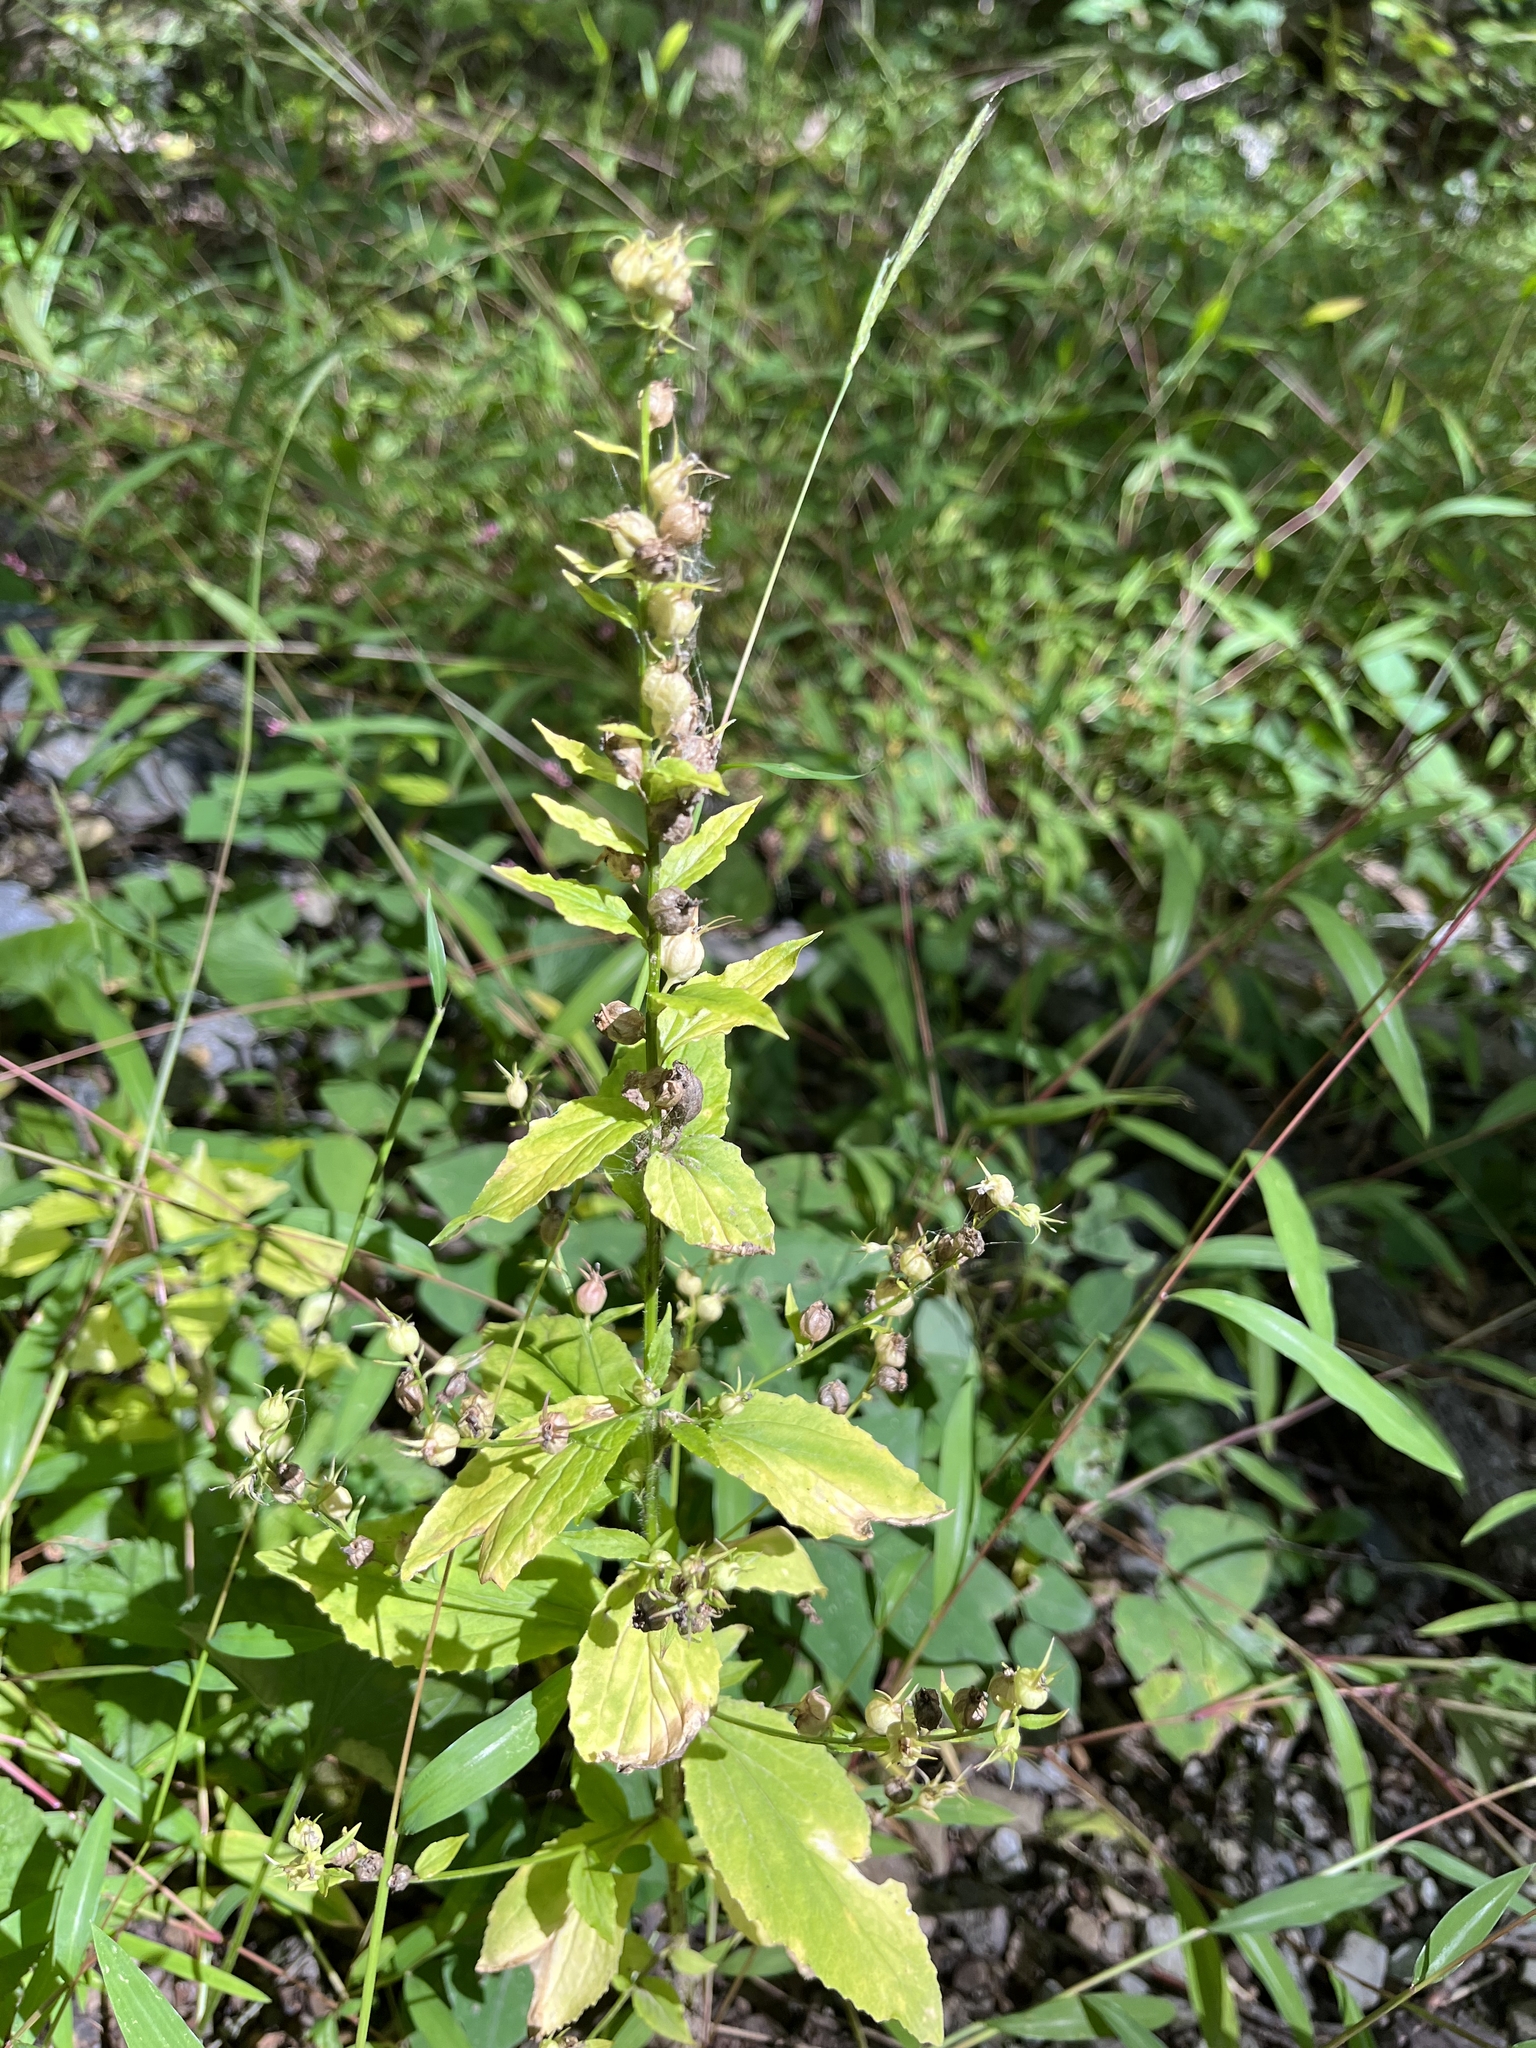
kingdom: Plantae
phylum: Tracheophyta
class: Magnoliopsida
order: Asterales
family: Campanulaceae
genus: Lobelia
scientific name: Lobelia inflata
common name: Indian tobacco
